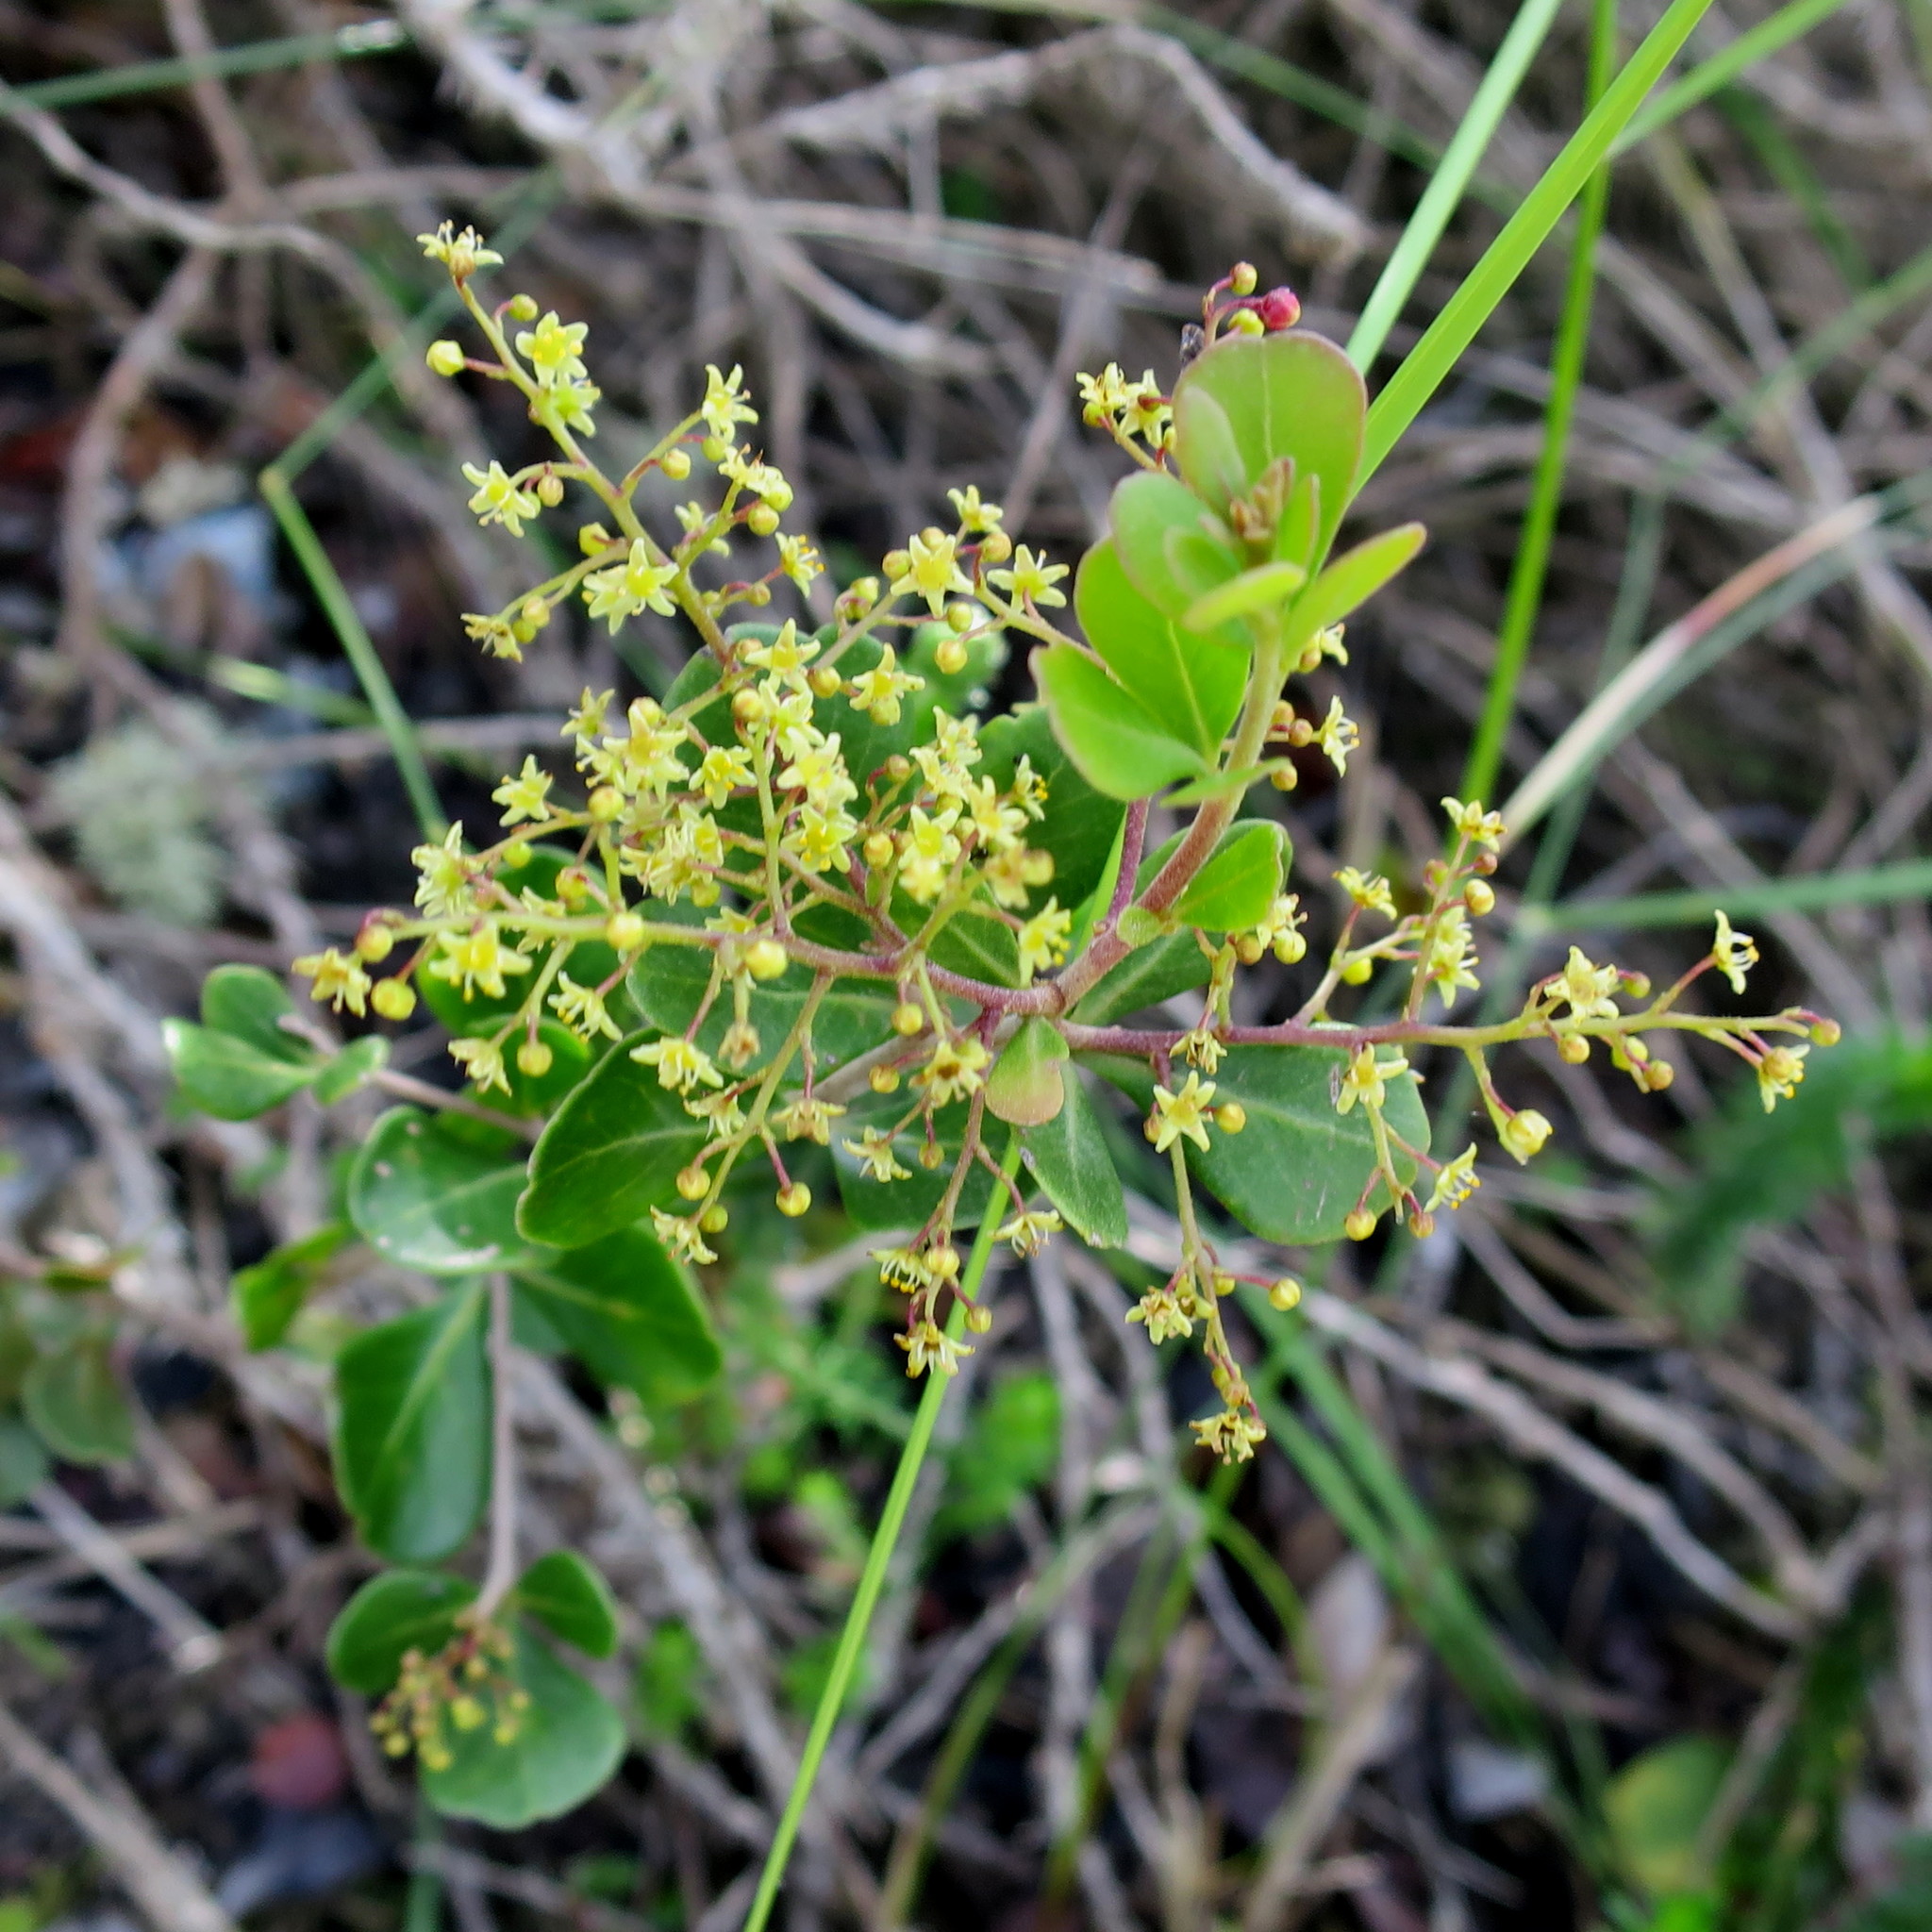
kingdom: Plantae
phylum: Tracheophyta
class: Magnoliopsida
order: Sapindales
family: Anacardiaceae
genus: Searsia
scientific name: Searsia lucida
